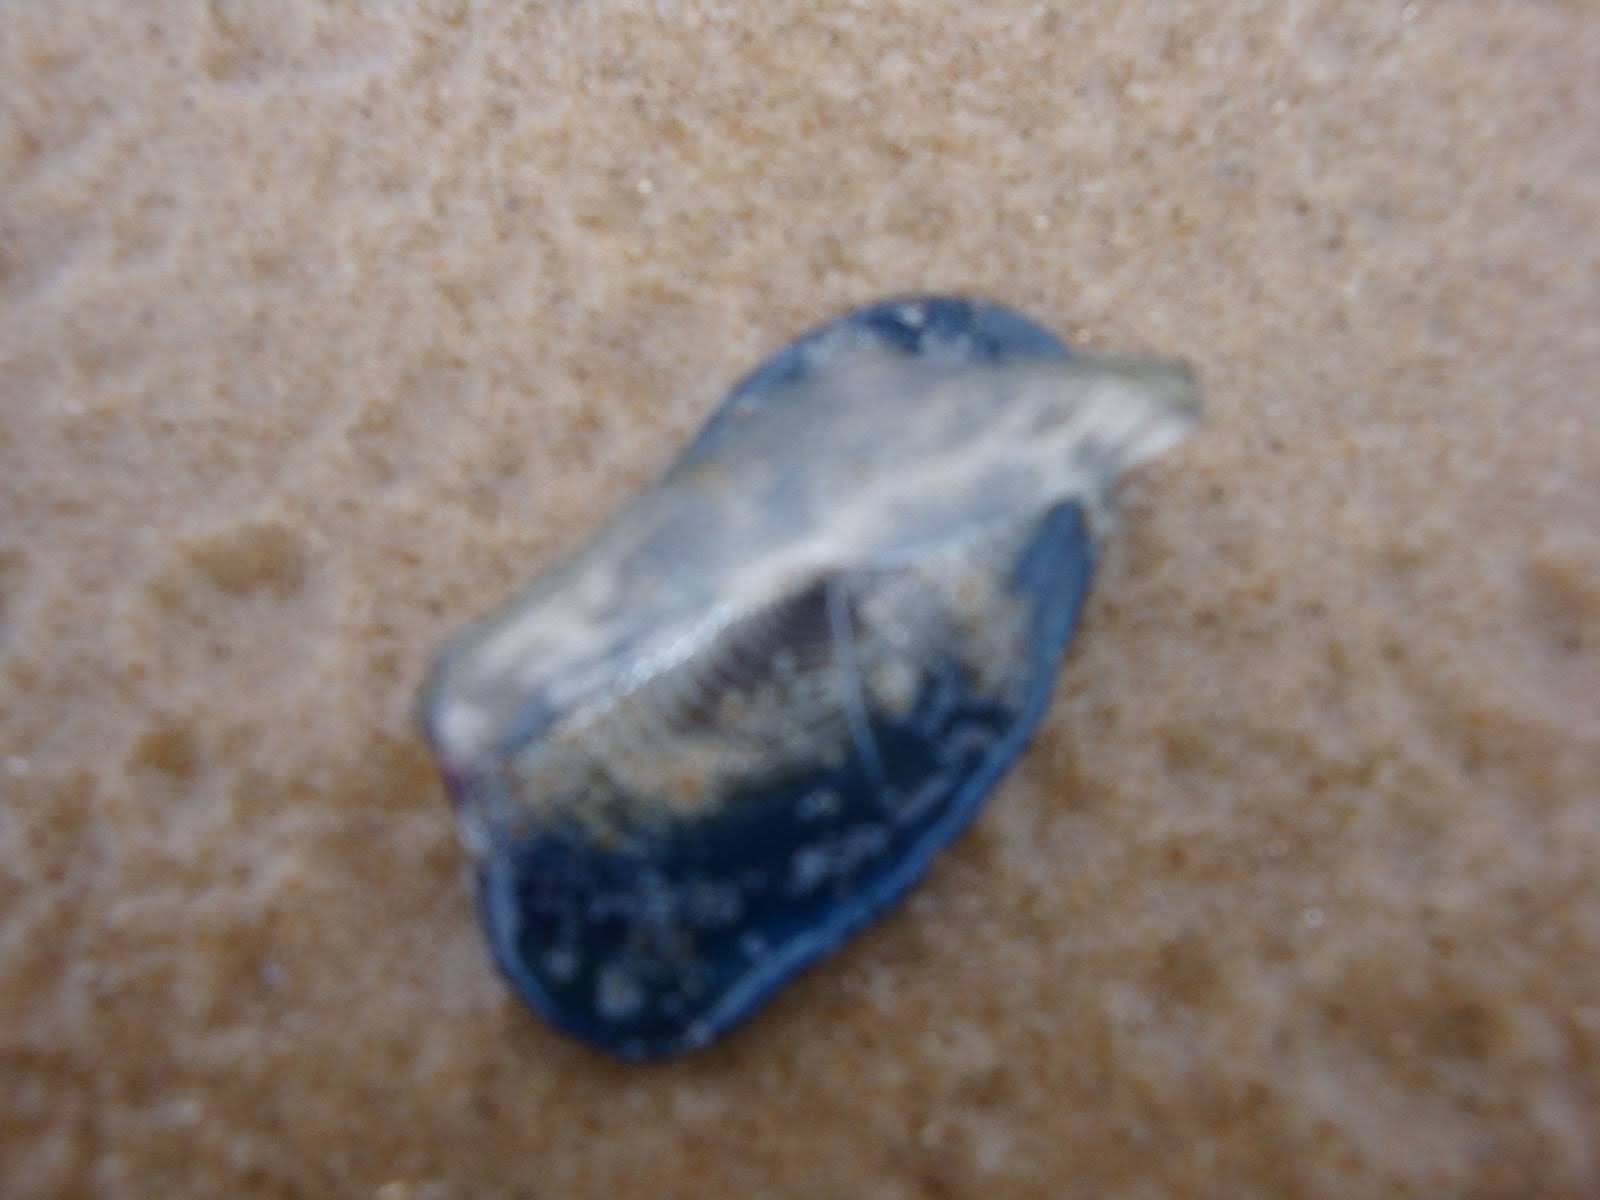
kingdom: Animalia
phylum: Cnidaria
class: Hydrozoa
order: Anthoathecata
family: Porpitidae
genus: Velella
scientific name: Velella velella
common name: By-the-wind-sailor
